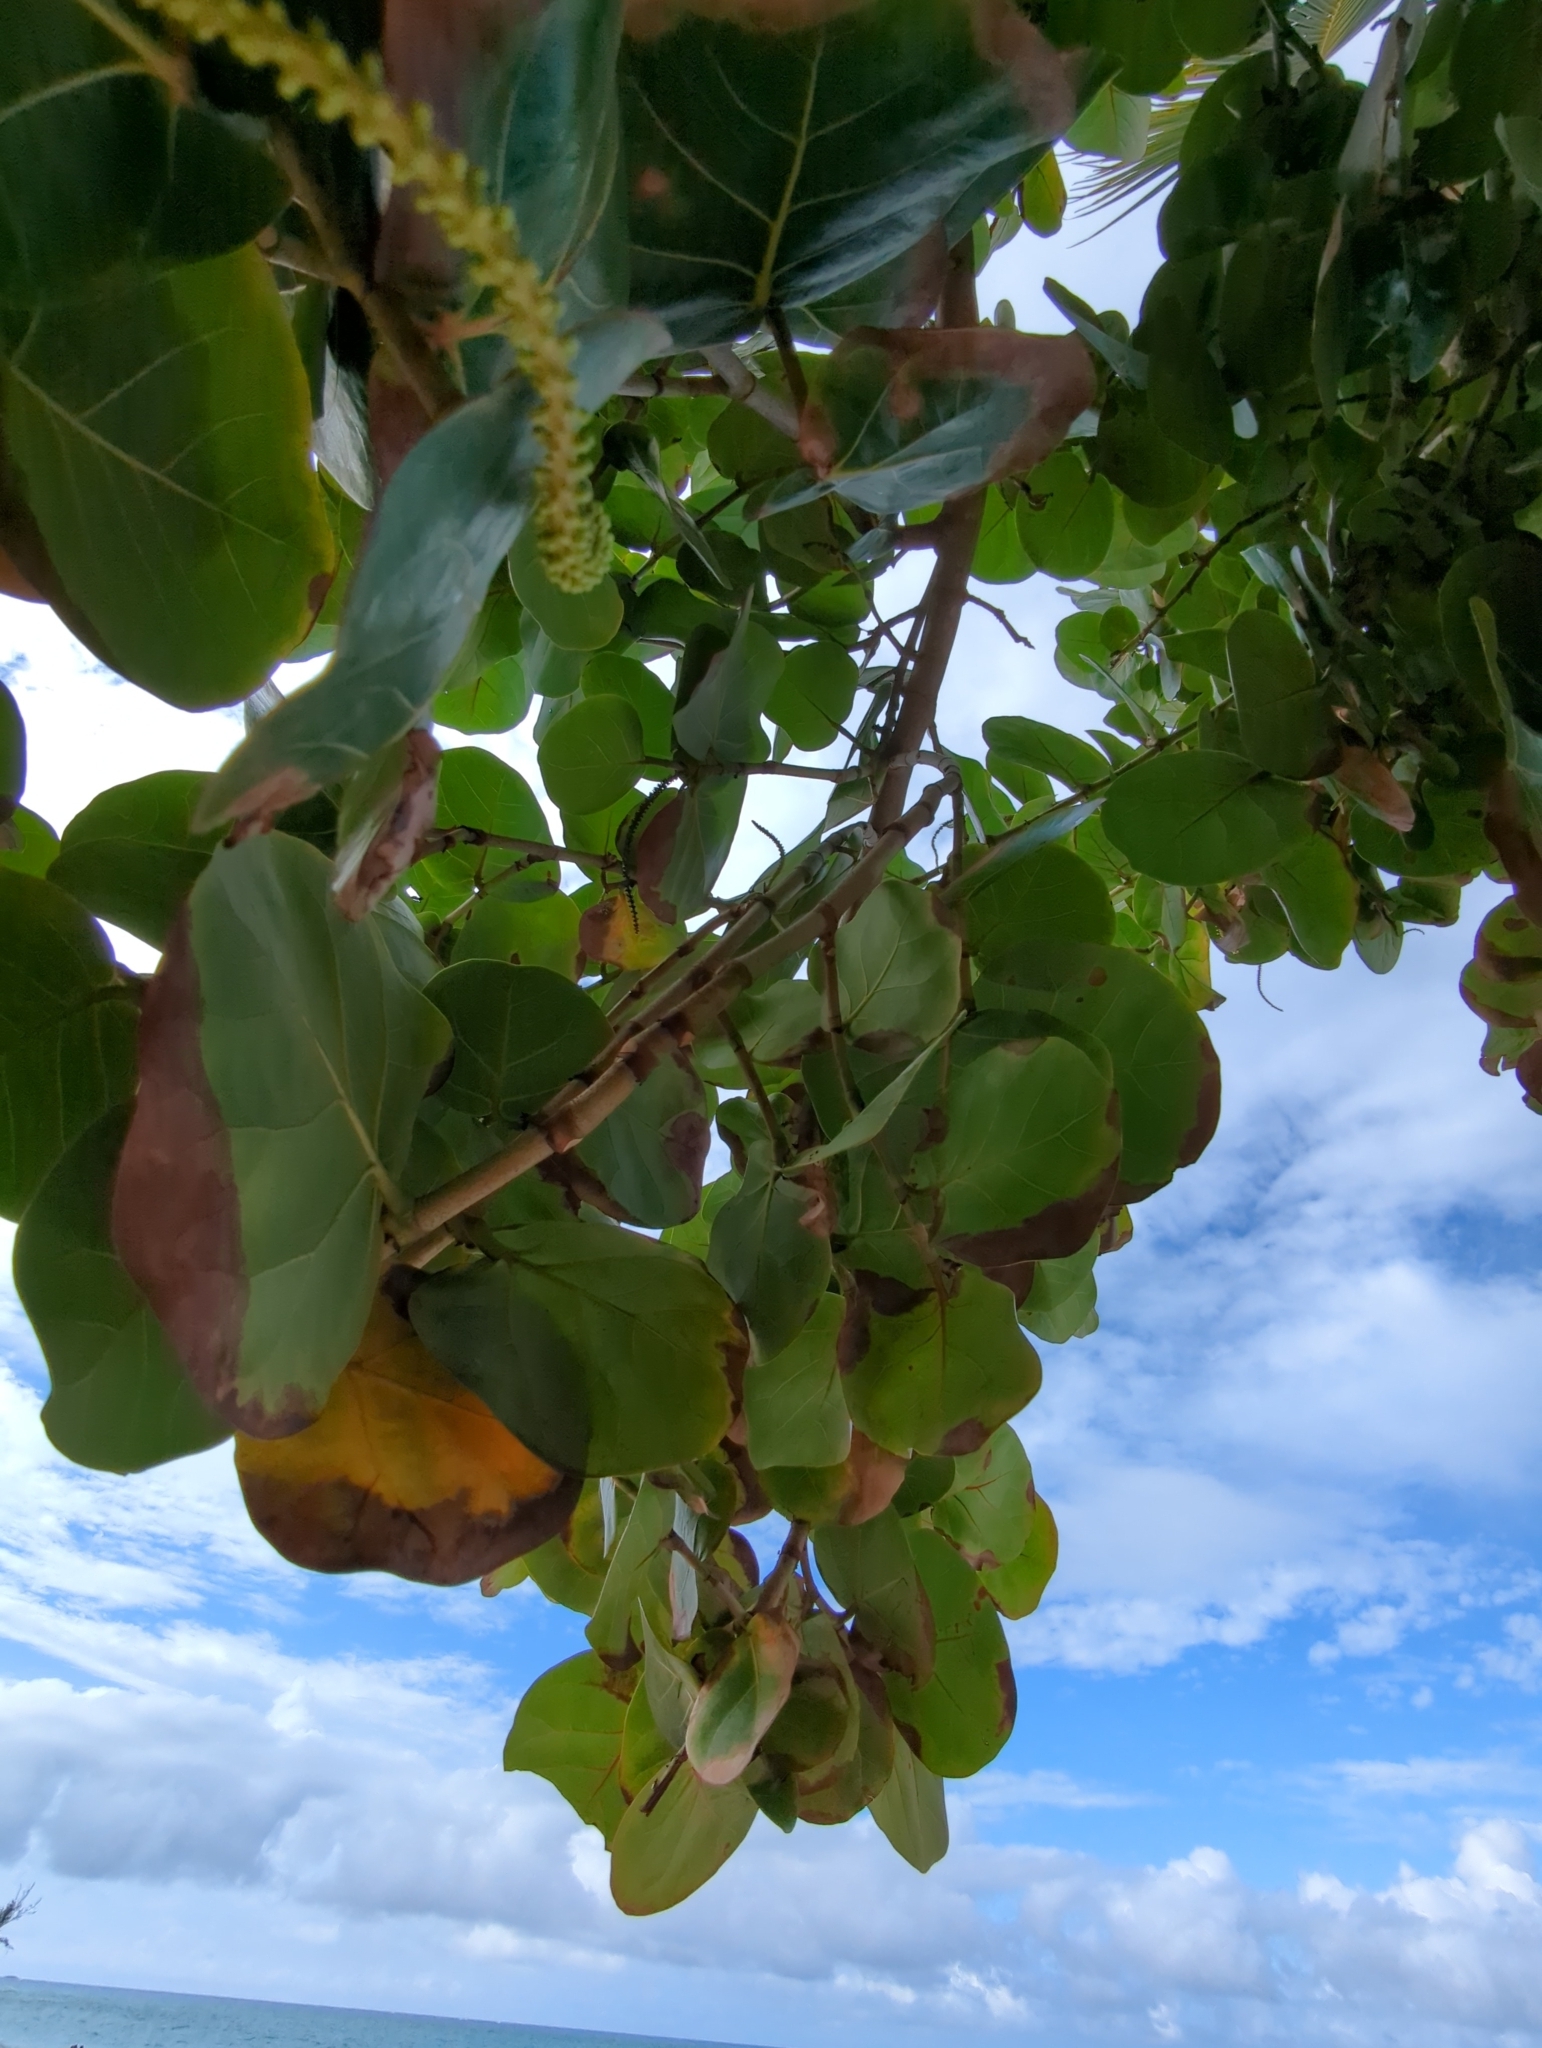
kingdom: Plantae
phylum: Tracheophyta
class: Magnoliopsida
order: Caryophyllales
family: Polygonaceae
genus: Coccoloba
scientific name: Coccoloba uvifera
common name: Seagrape
